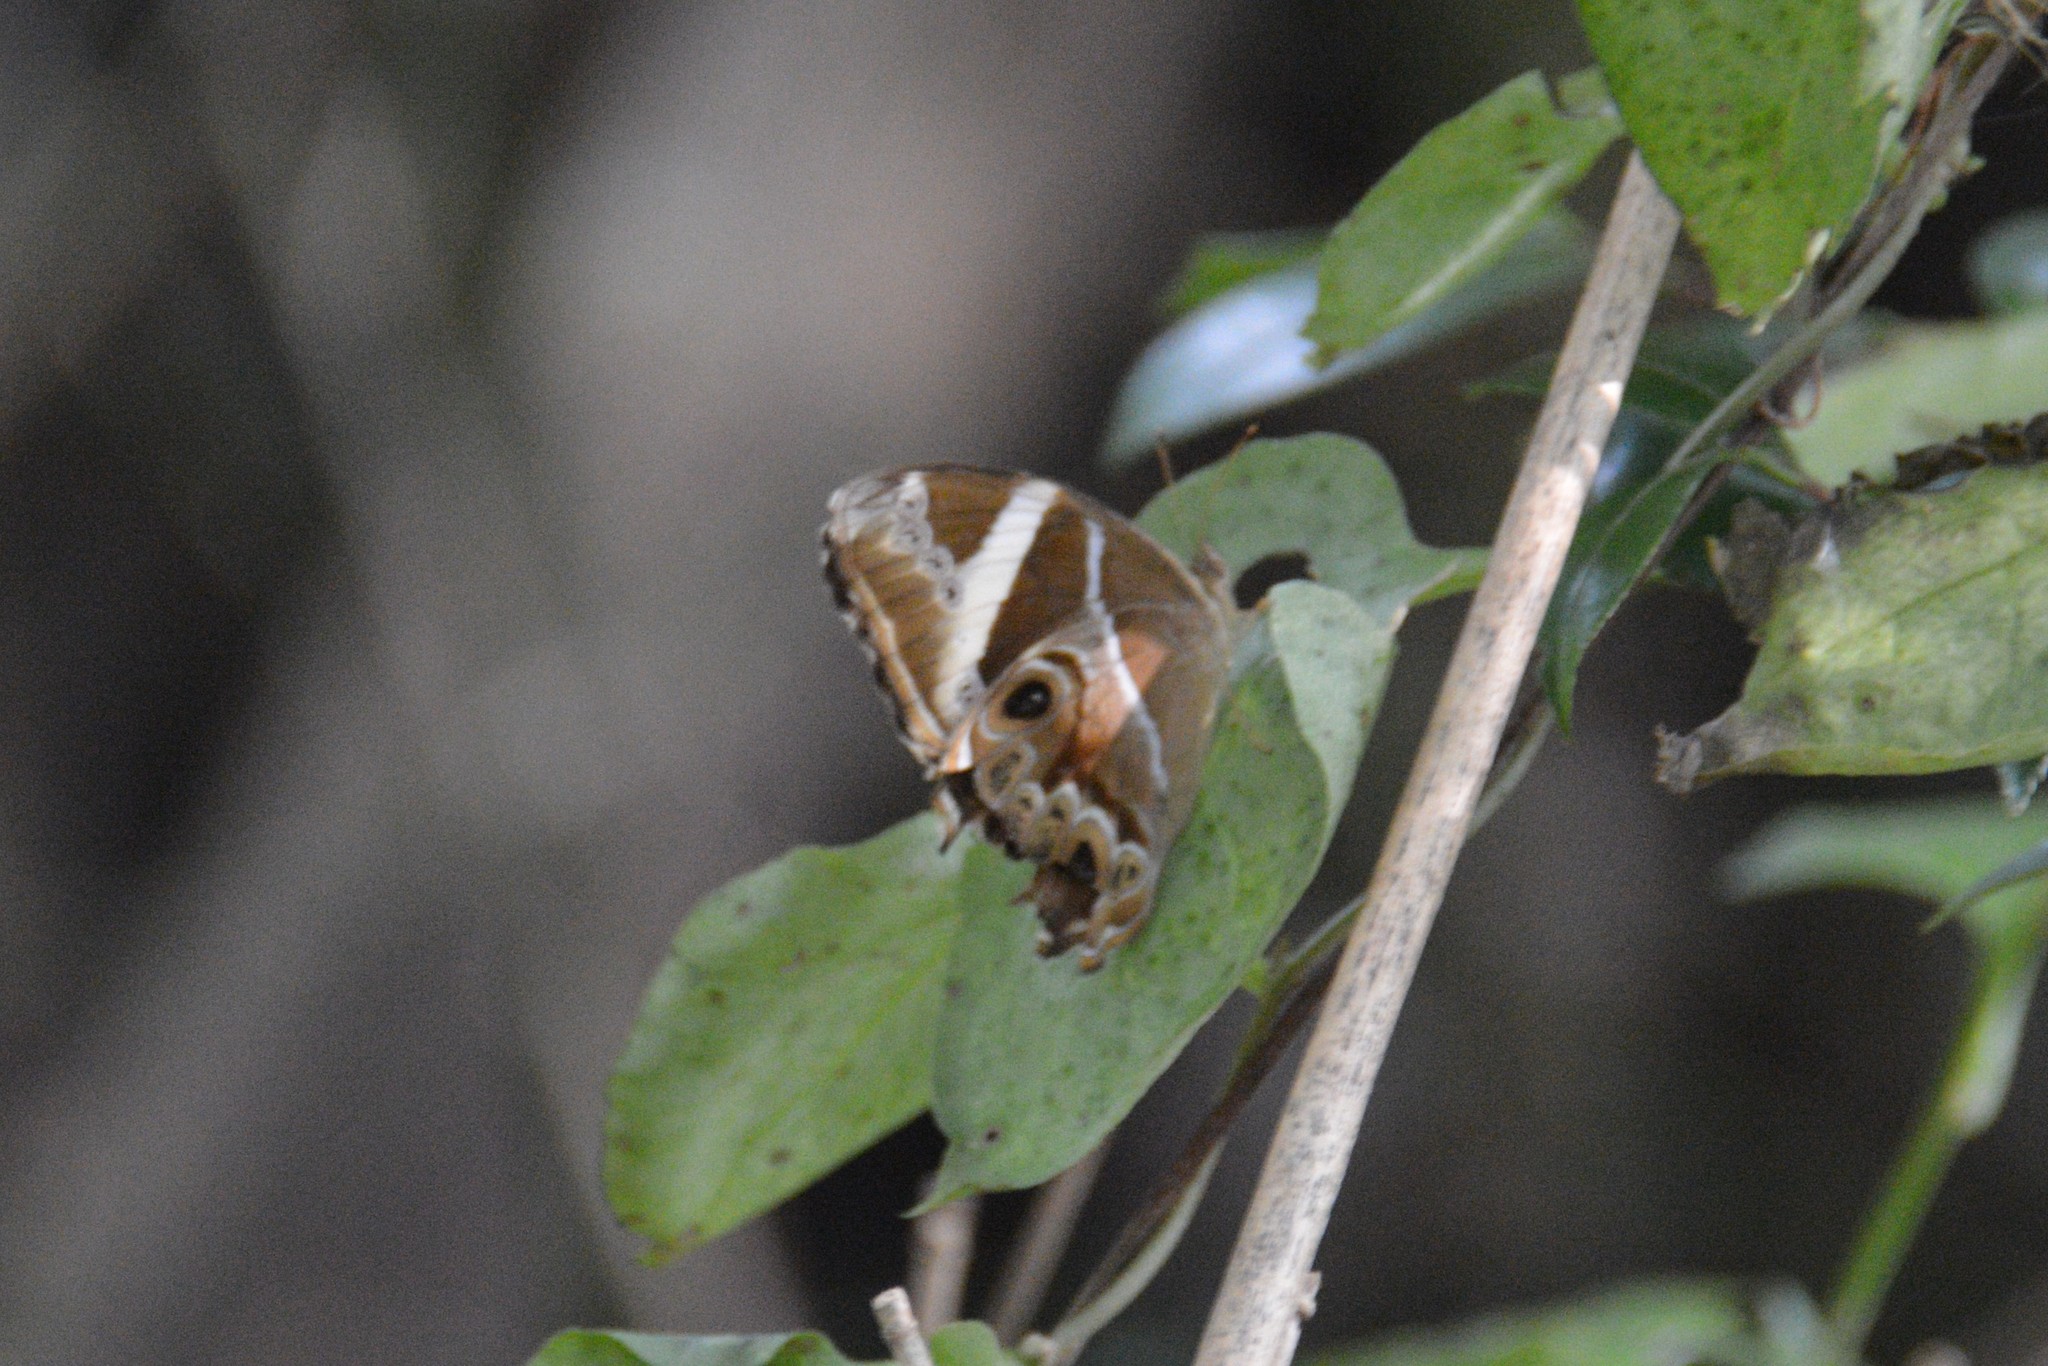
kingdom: Animalia
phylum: Arthropoda
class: Insecta
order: Lepidoptera
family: Nymphalidae
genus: Lethe
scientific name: Lethe europa
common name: Bamboo treebrown
